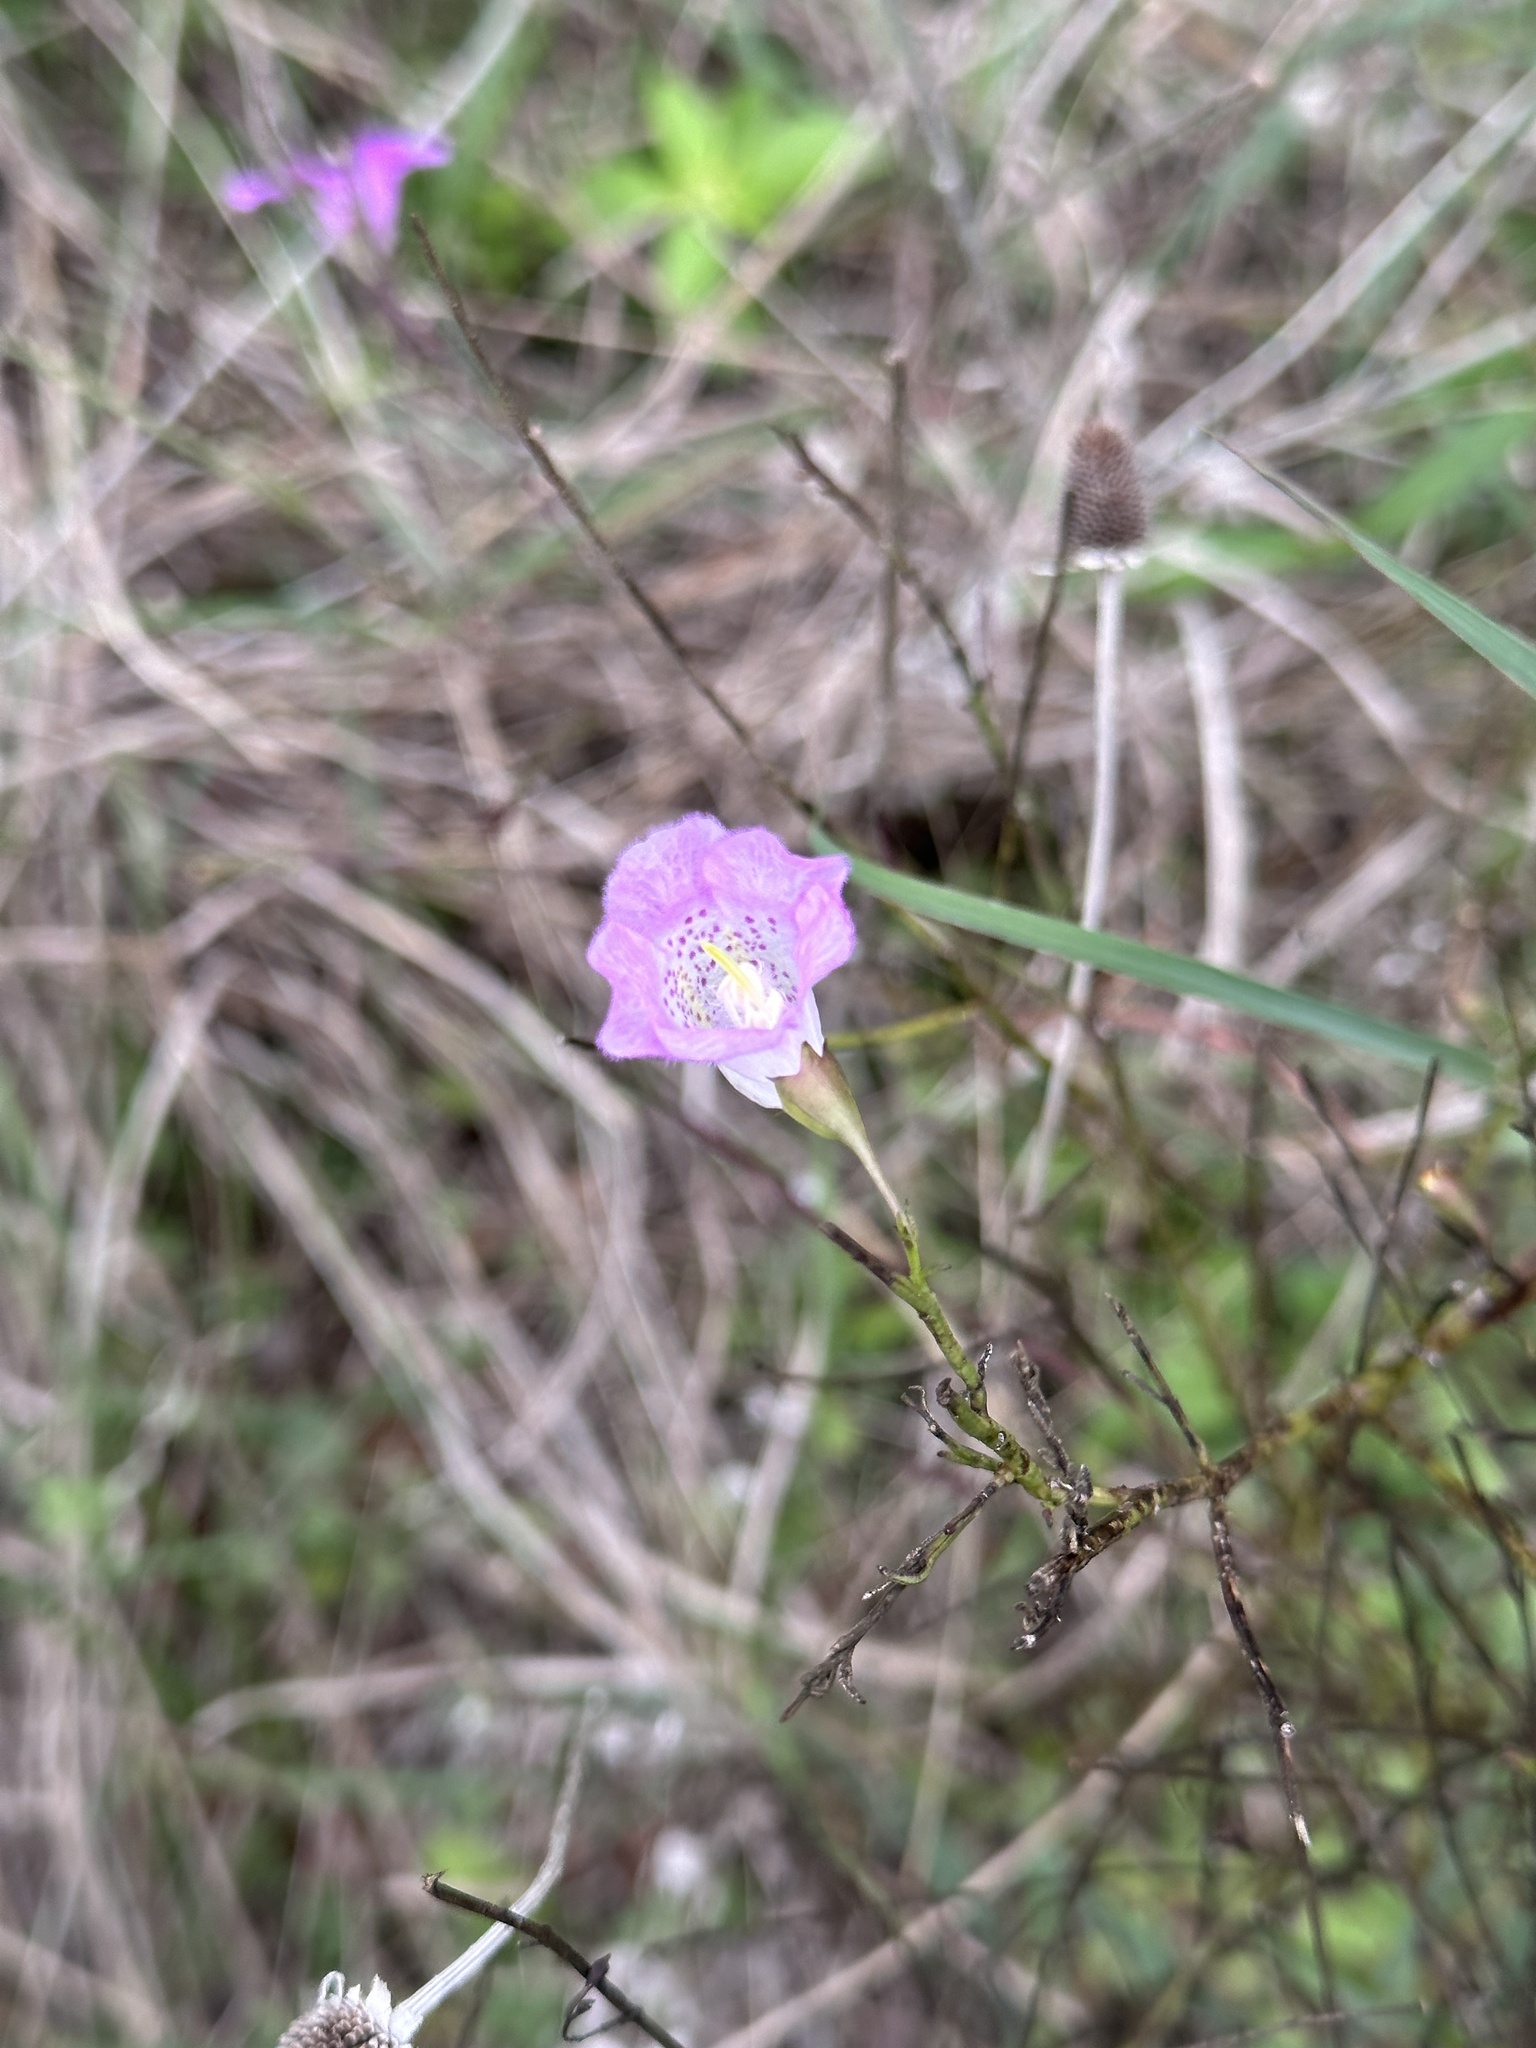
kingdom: Plantae
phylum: Tracheophyta
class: Magnoliopsida
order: Lamiales
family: Orobanchaceae
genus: Agalinis
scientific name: Agalinis strictifolia
